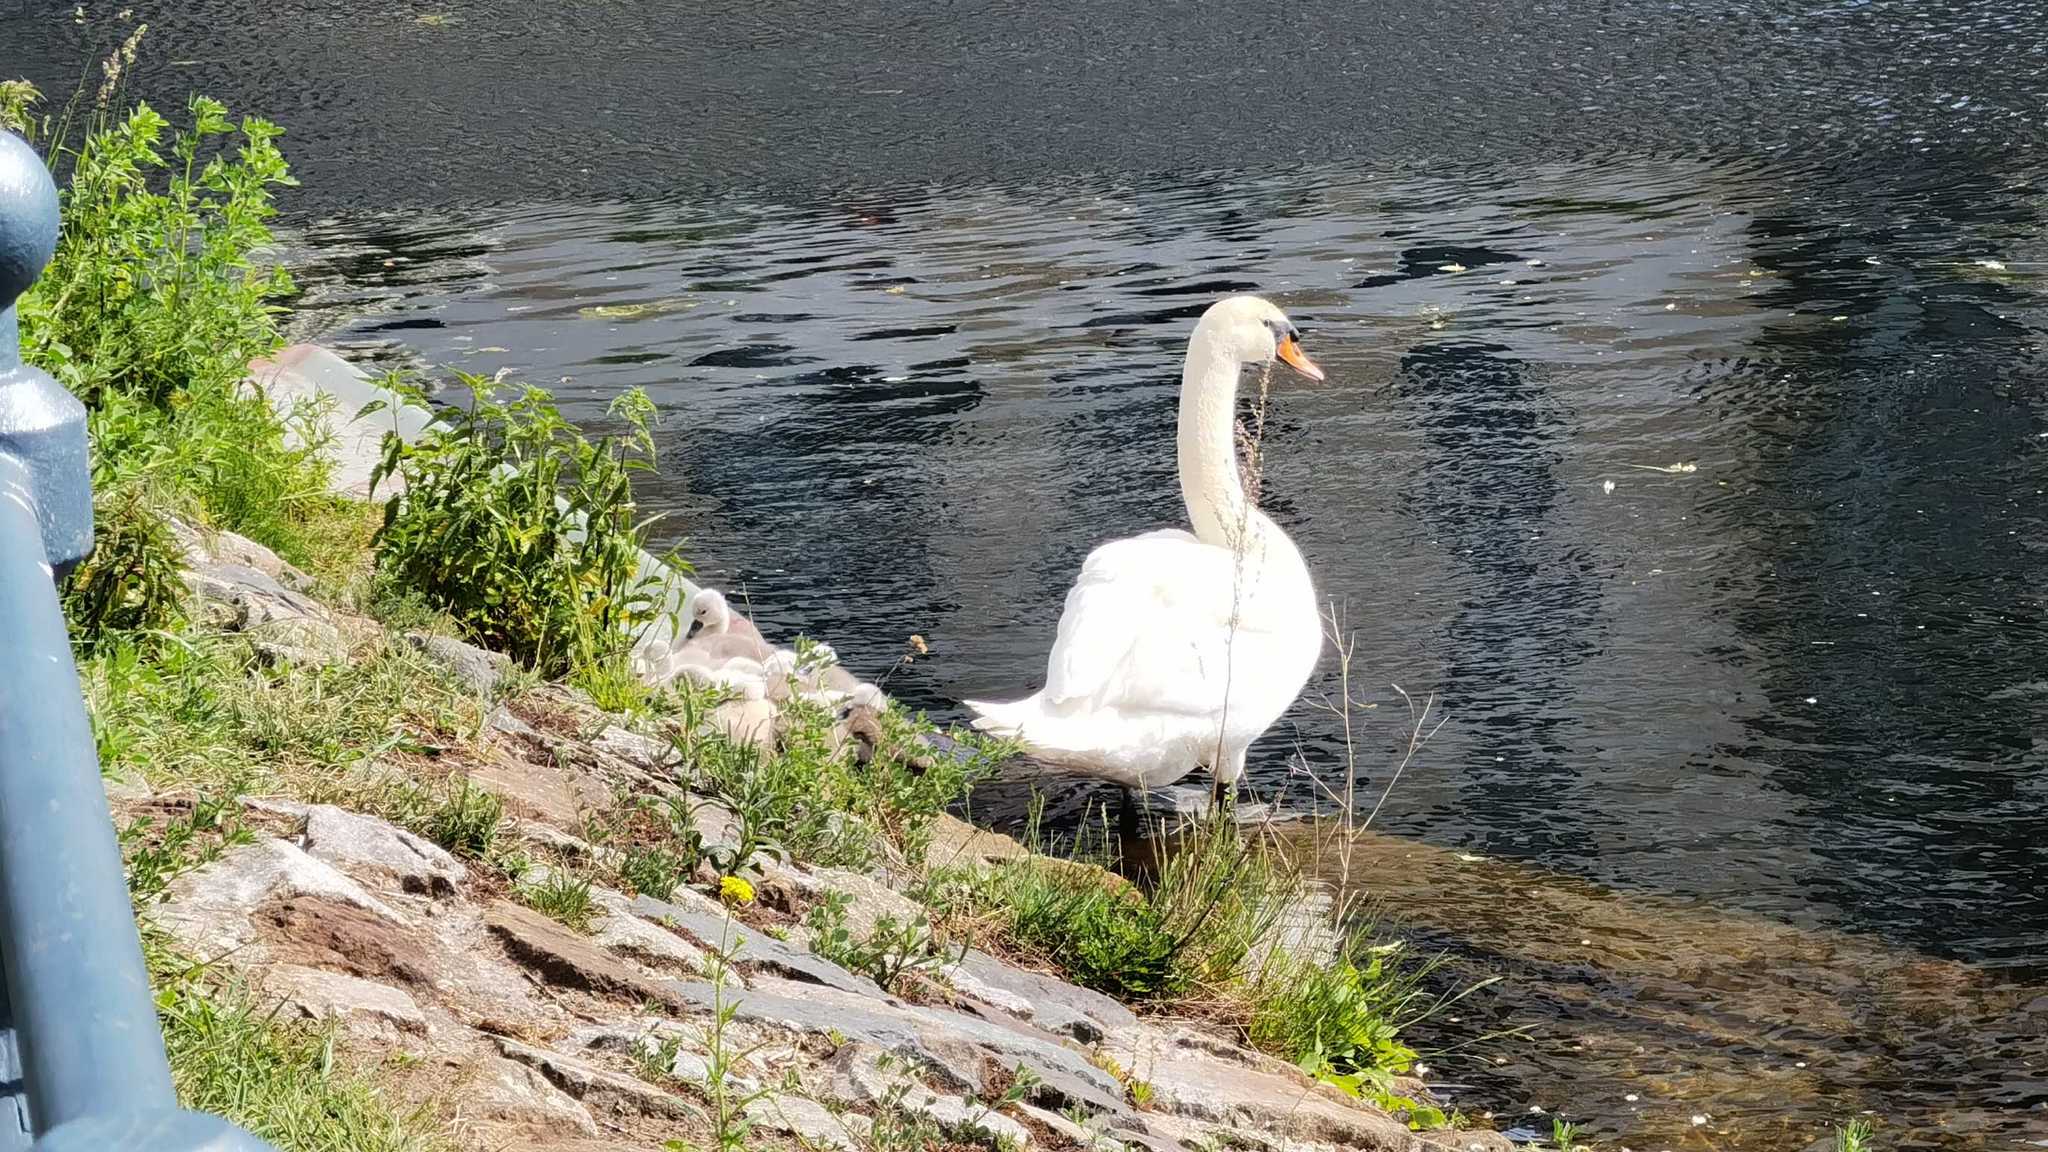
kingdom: Animalia
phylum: Chordata
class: Aves
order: Anseriformes
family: Anatidae
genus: Cygnus
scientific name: Cygnus olor
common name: Mute swan
